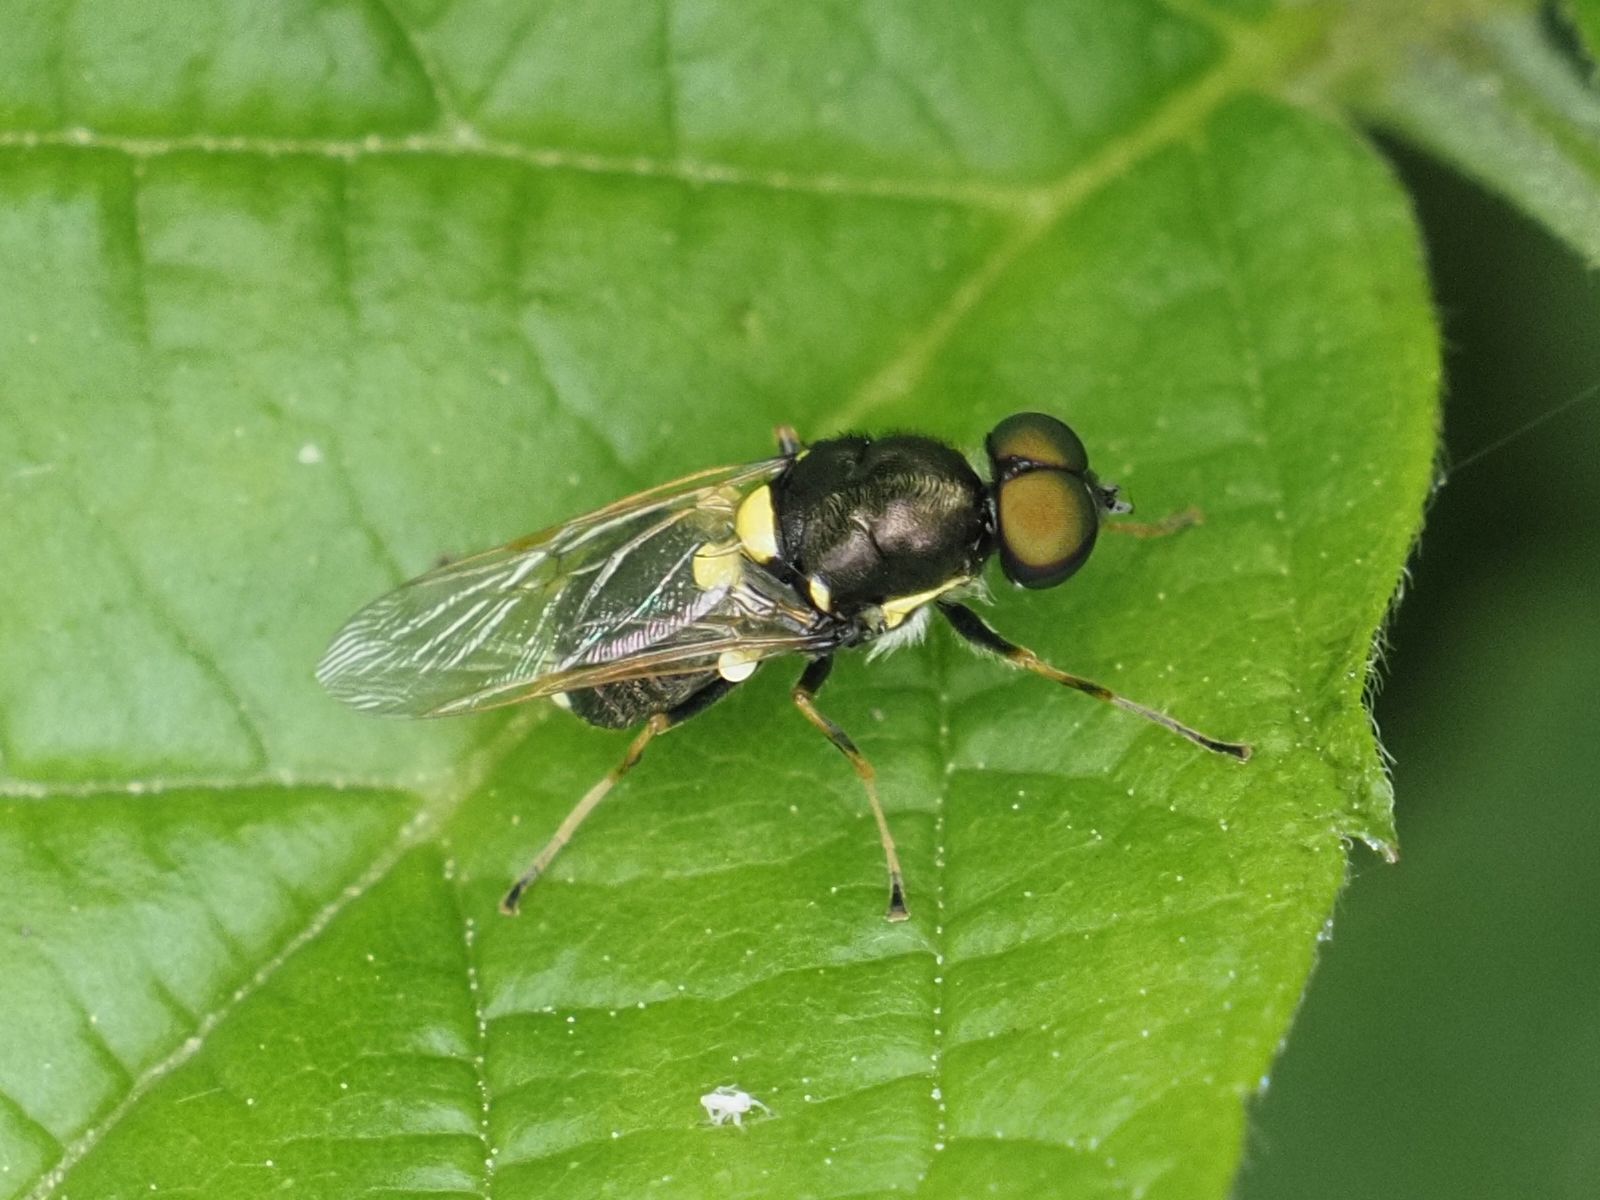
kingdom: Animalia
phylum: Arthropoda
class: Insecta
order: Diptera
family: Stratiomyidae
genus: Oxycera
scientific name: Oxycera leonina
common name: Twin-spotted major
